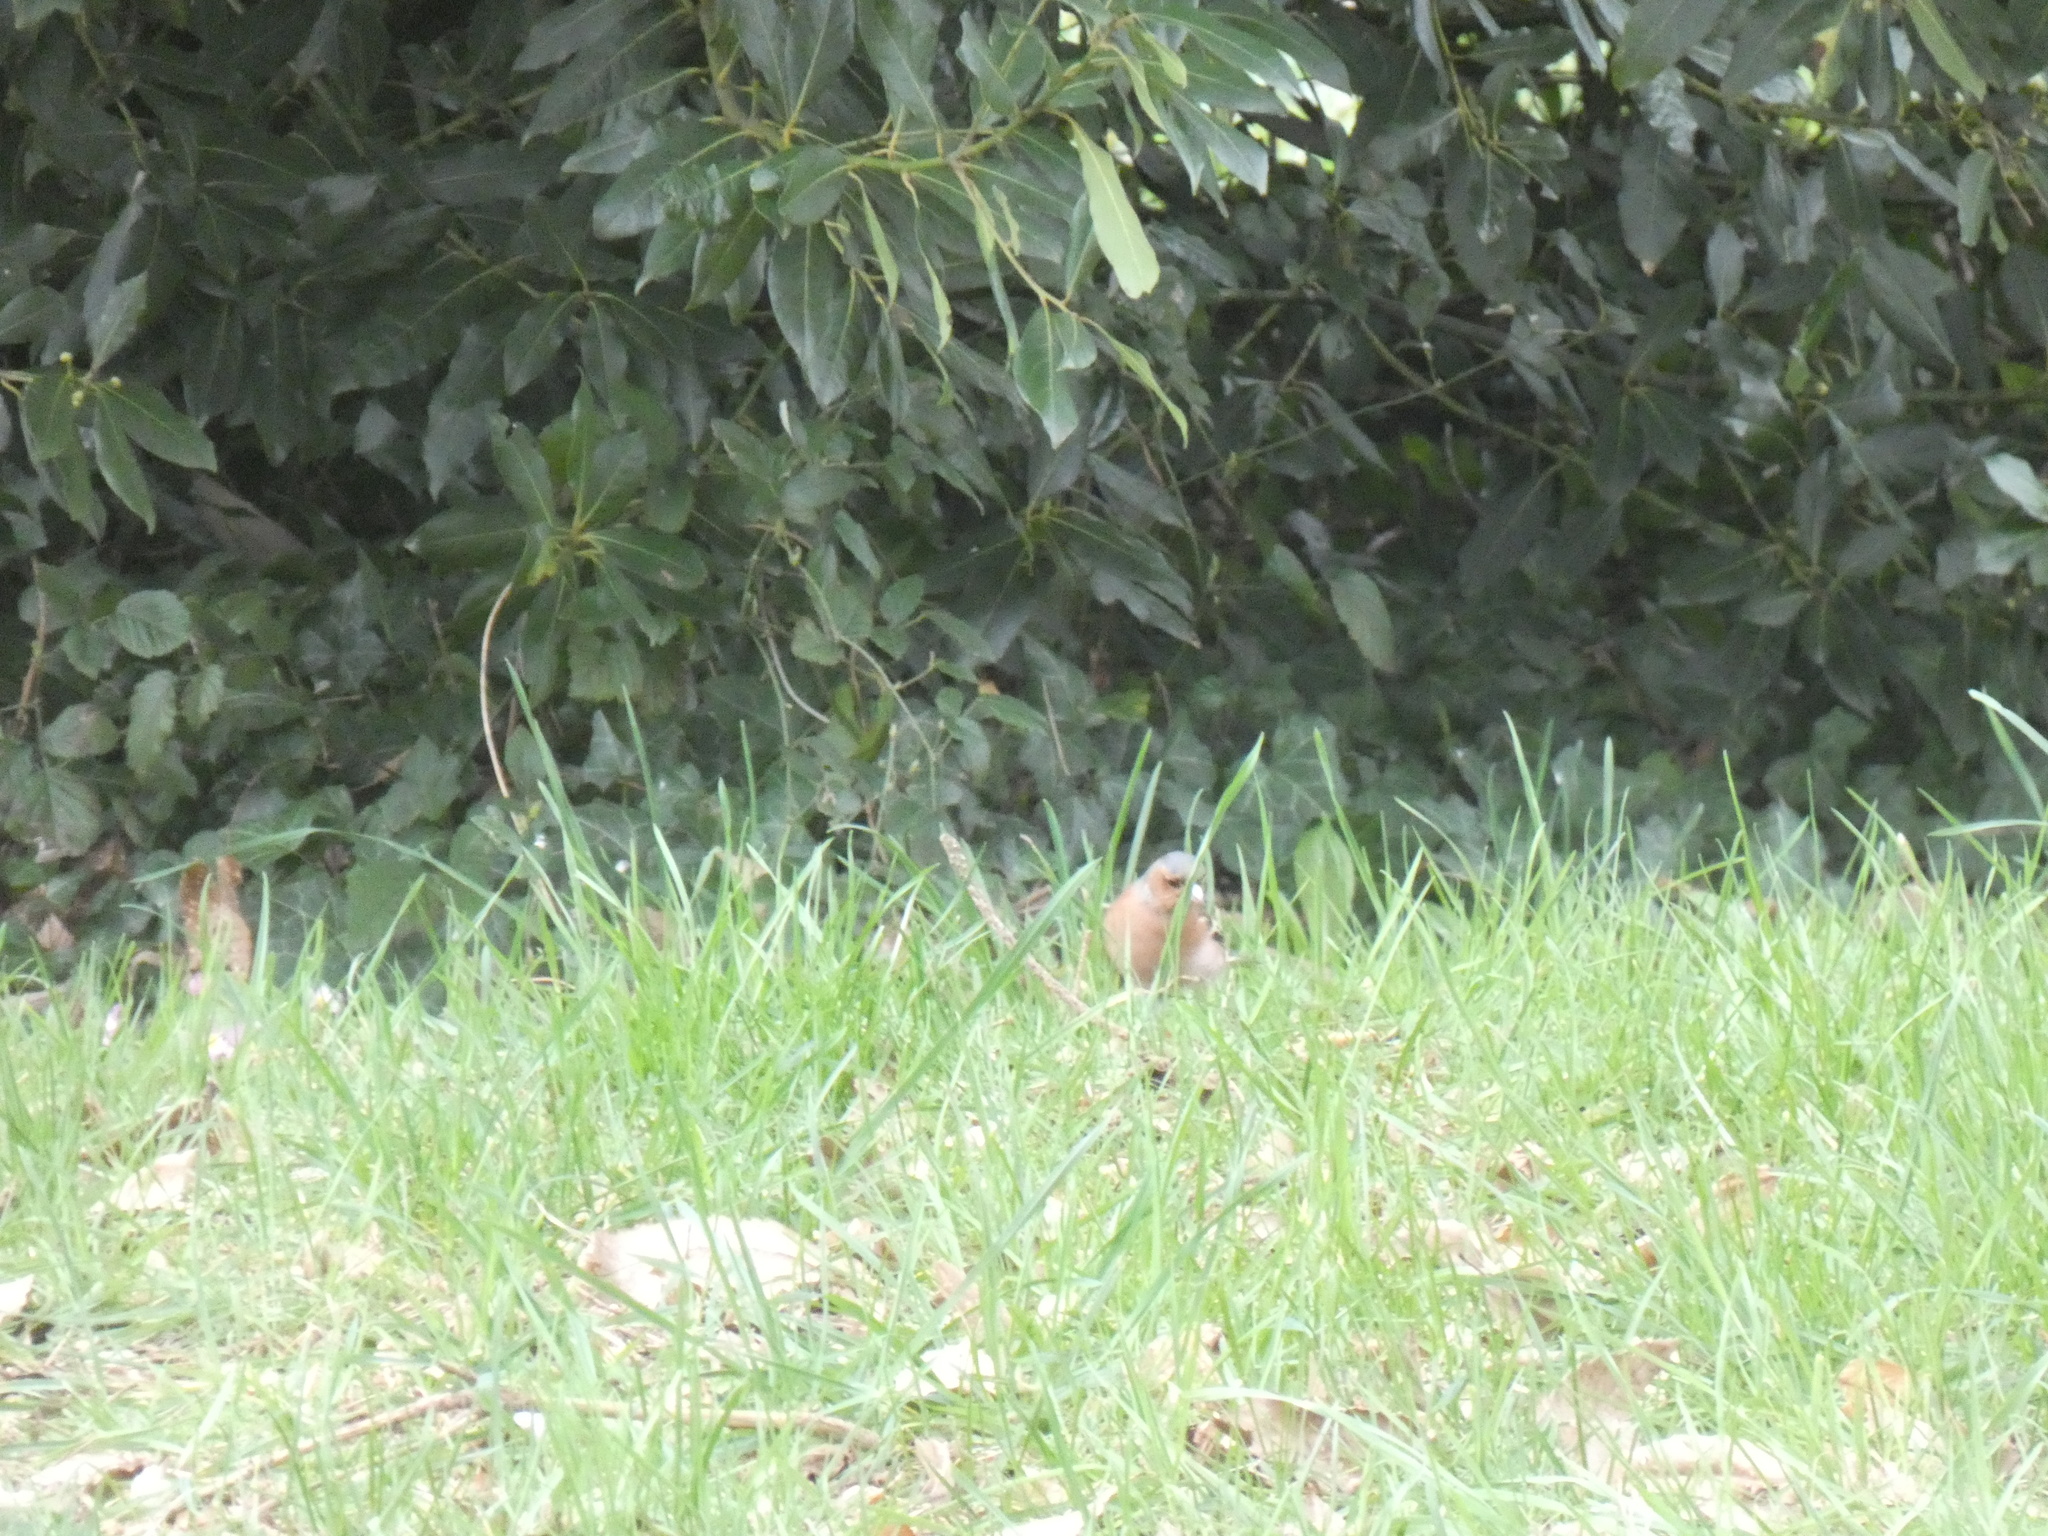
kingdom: Animalia
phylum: Chordata
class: Aves
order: Passeriformes
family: Fringillidae
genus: Fringilla
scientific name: Fringilla coelebs
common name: Common chaffinch
